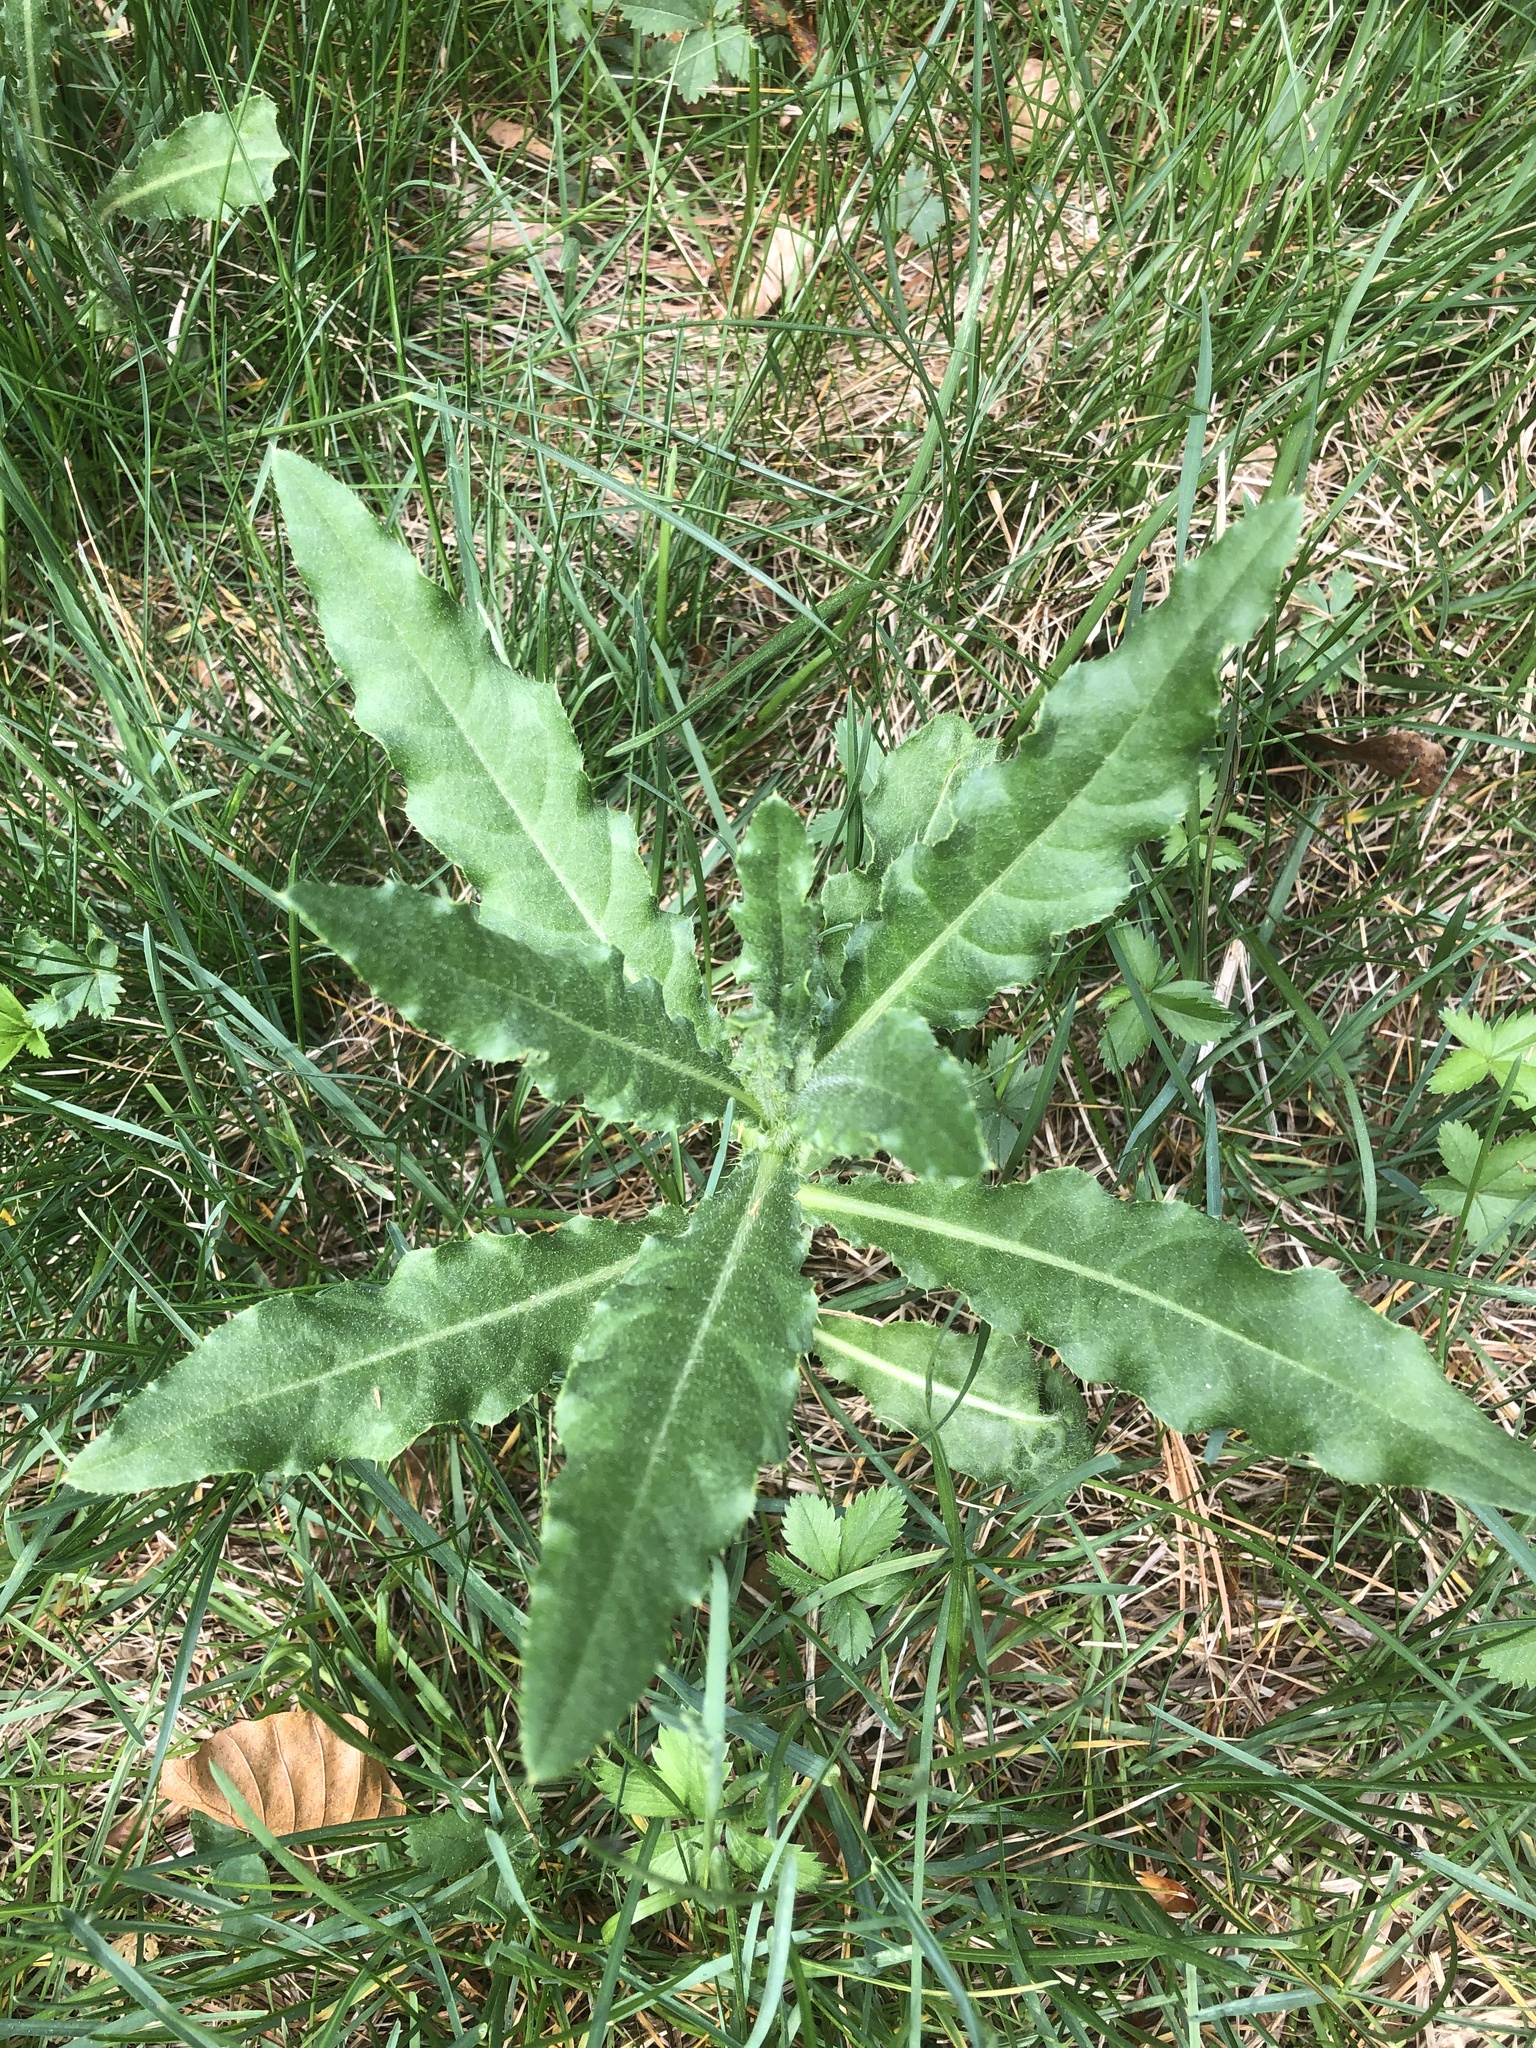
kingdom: Plantae
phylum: Tracheophyta
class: Magnoliopsida
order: Asterales
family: Asteraceae
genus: Cirsium
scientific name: Cirsium arvense
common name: Creeping thistle
